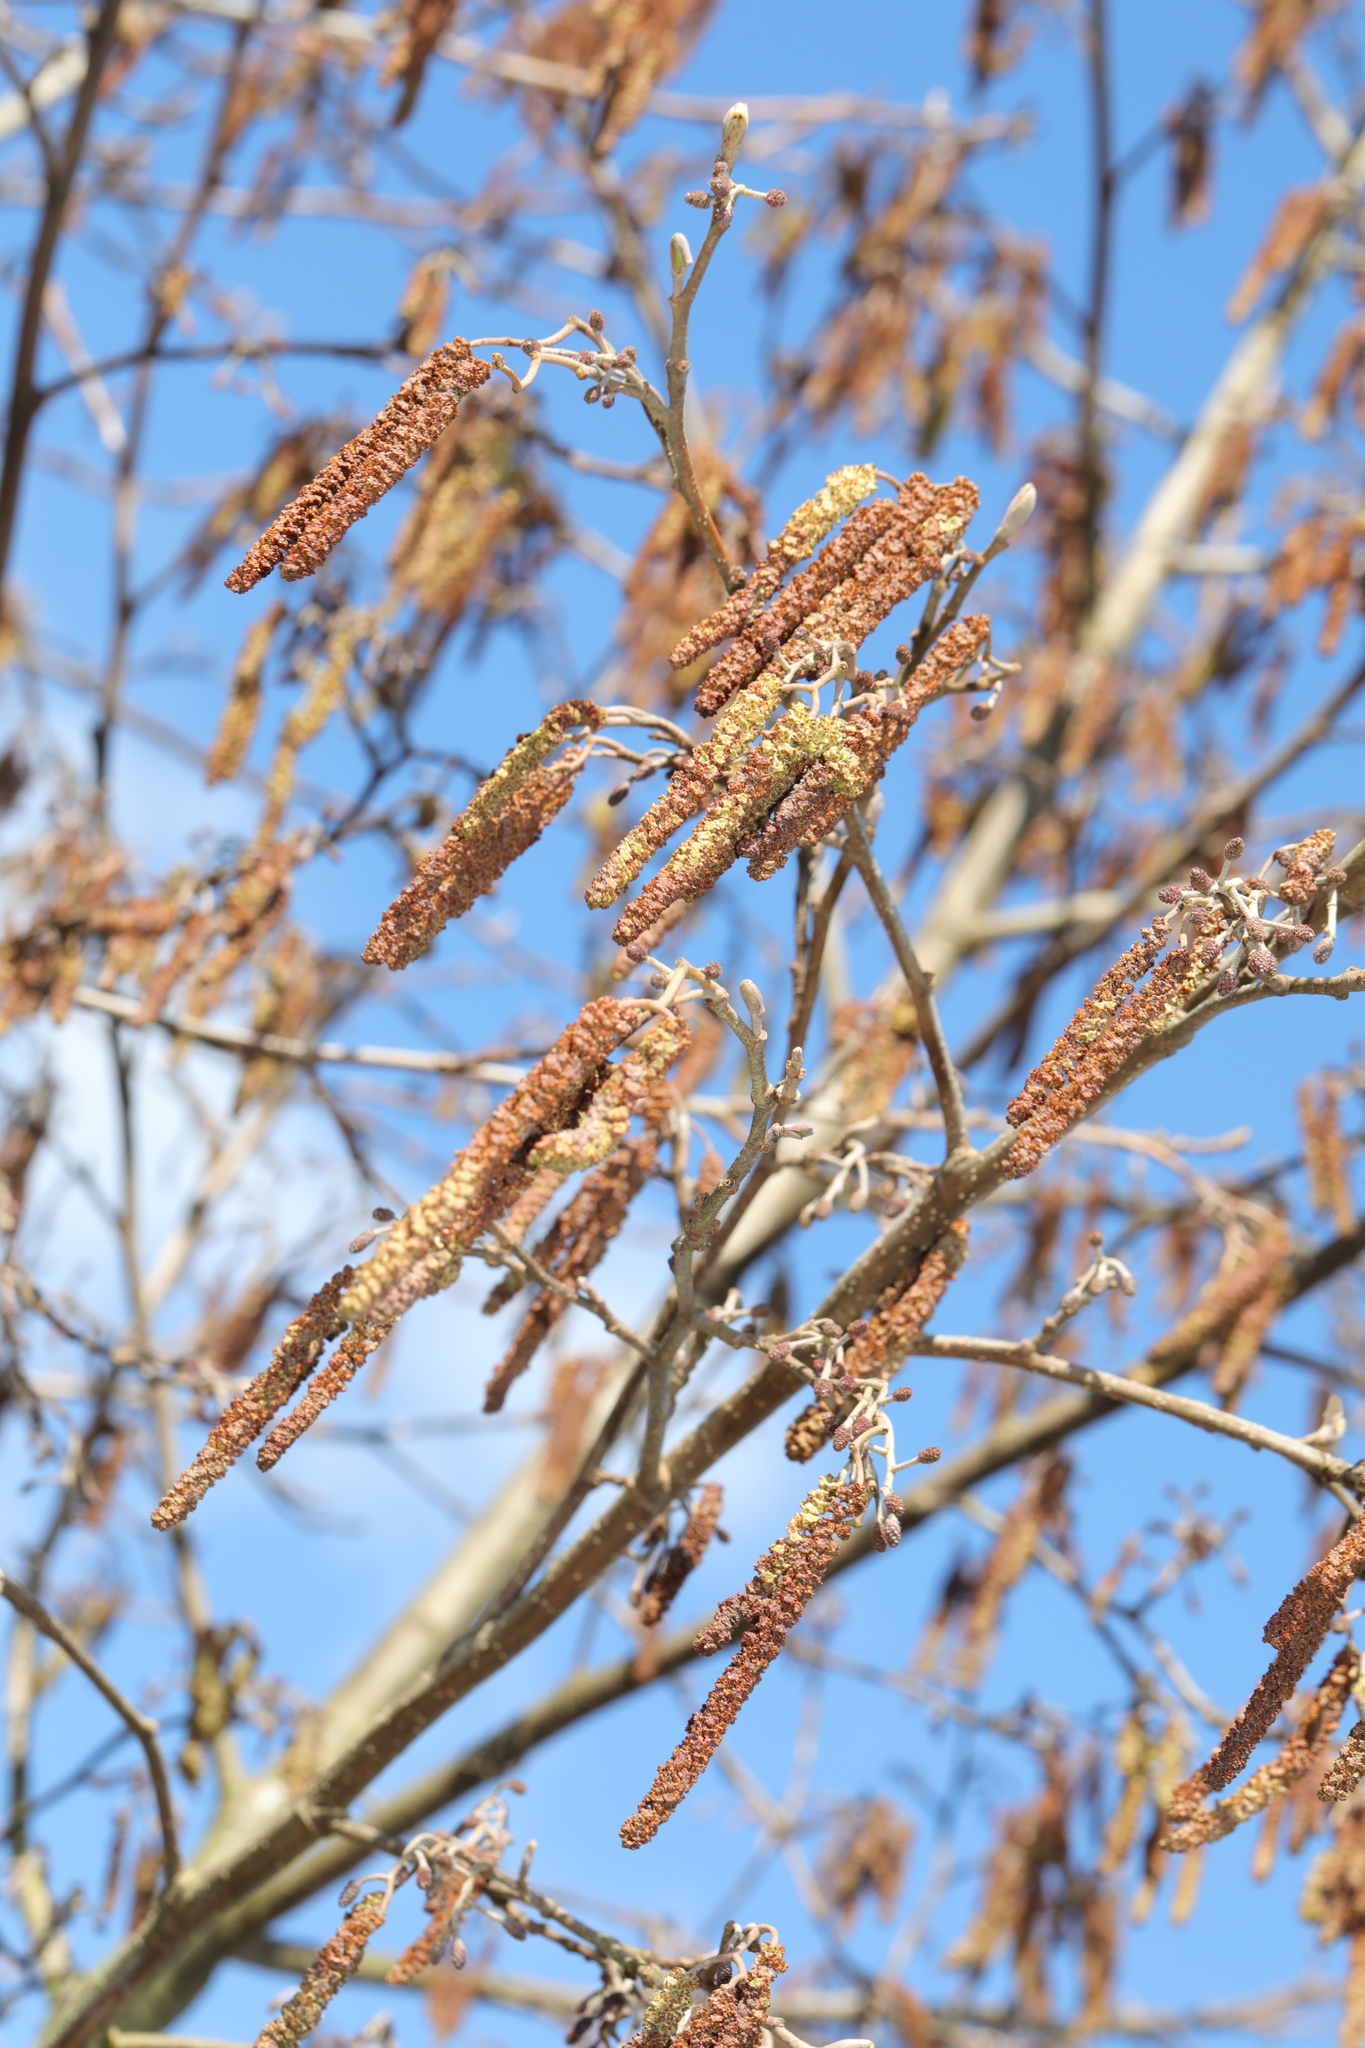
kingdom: Plantae
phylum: Tracheophyta
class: Magnoliopsida
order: Fagales
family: Betulaceae
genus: Alnus
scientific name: Alnus glutinosa
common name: Black alder
